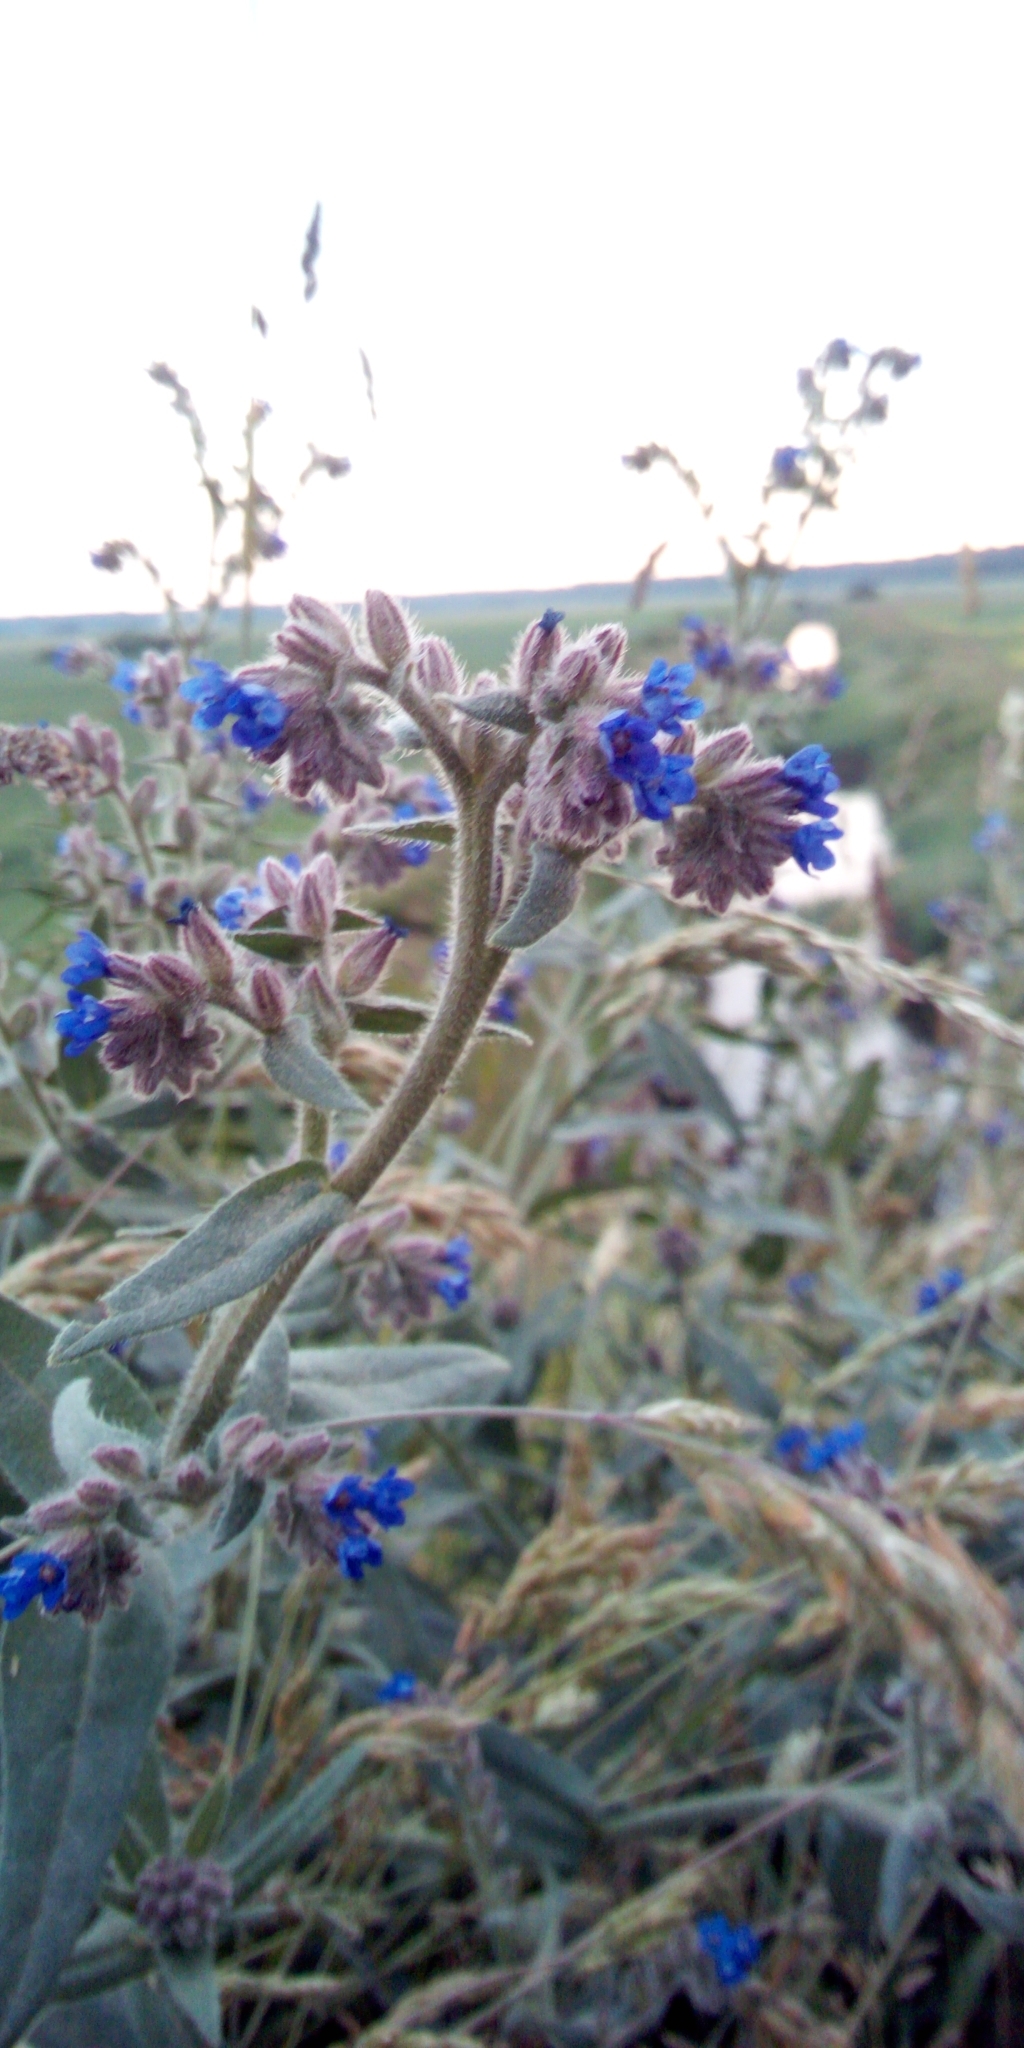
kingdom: Plantae
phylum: Tracheophyta
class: Magnoliopsida
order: Boraginales
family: Boraginaceae
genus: Anchusa
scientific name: Anchusa officinalis
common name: Alkanet
